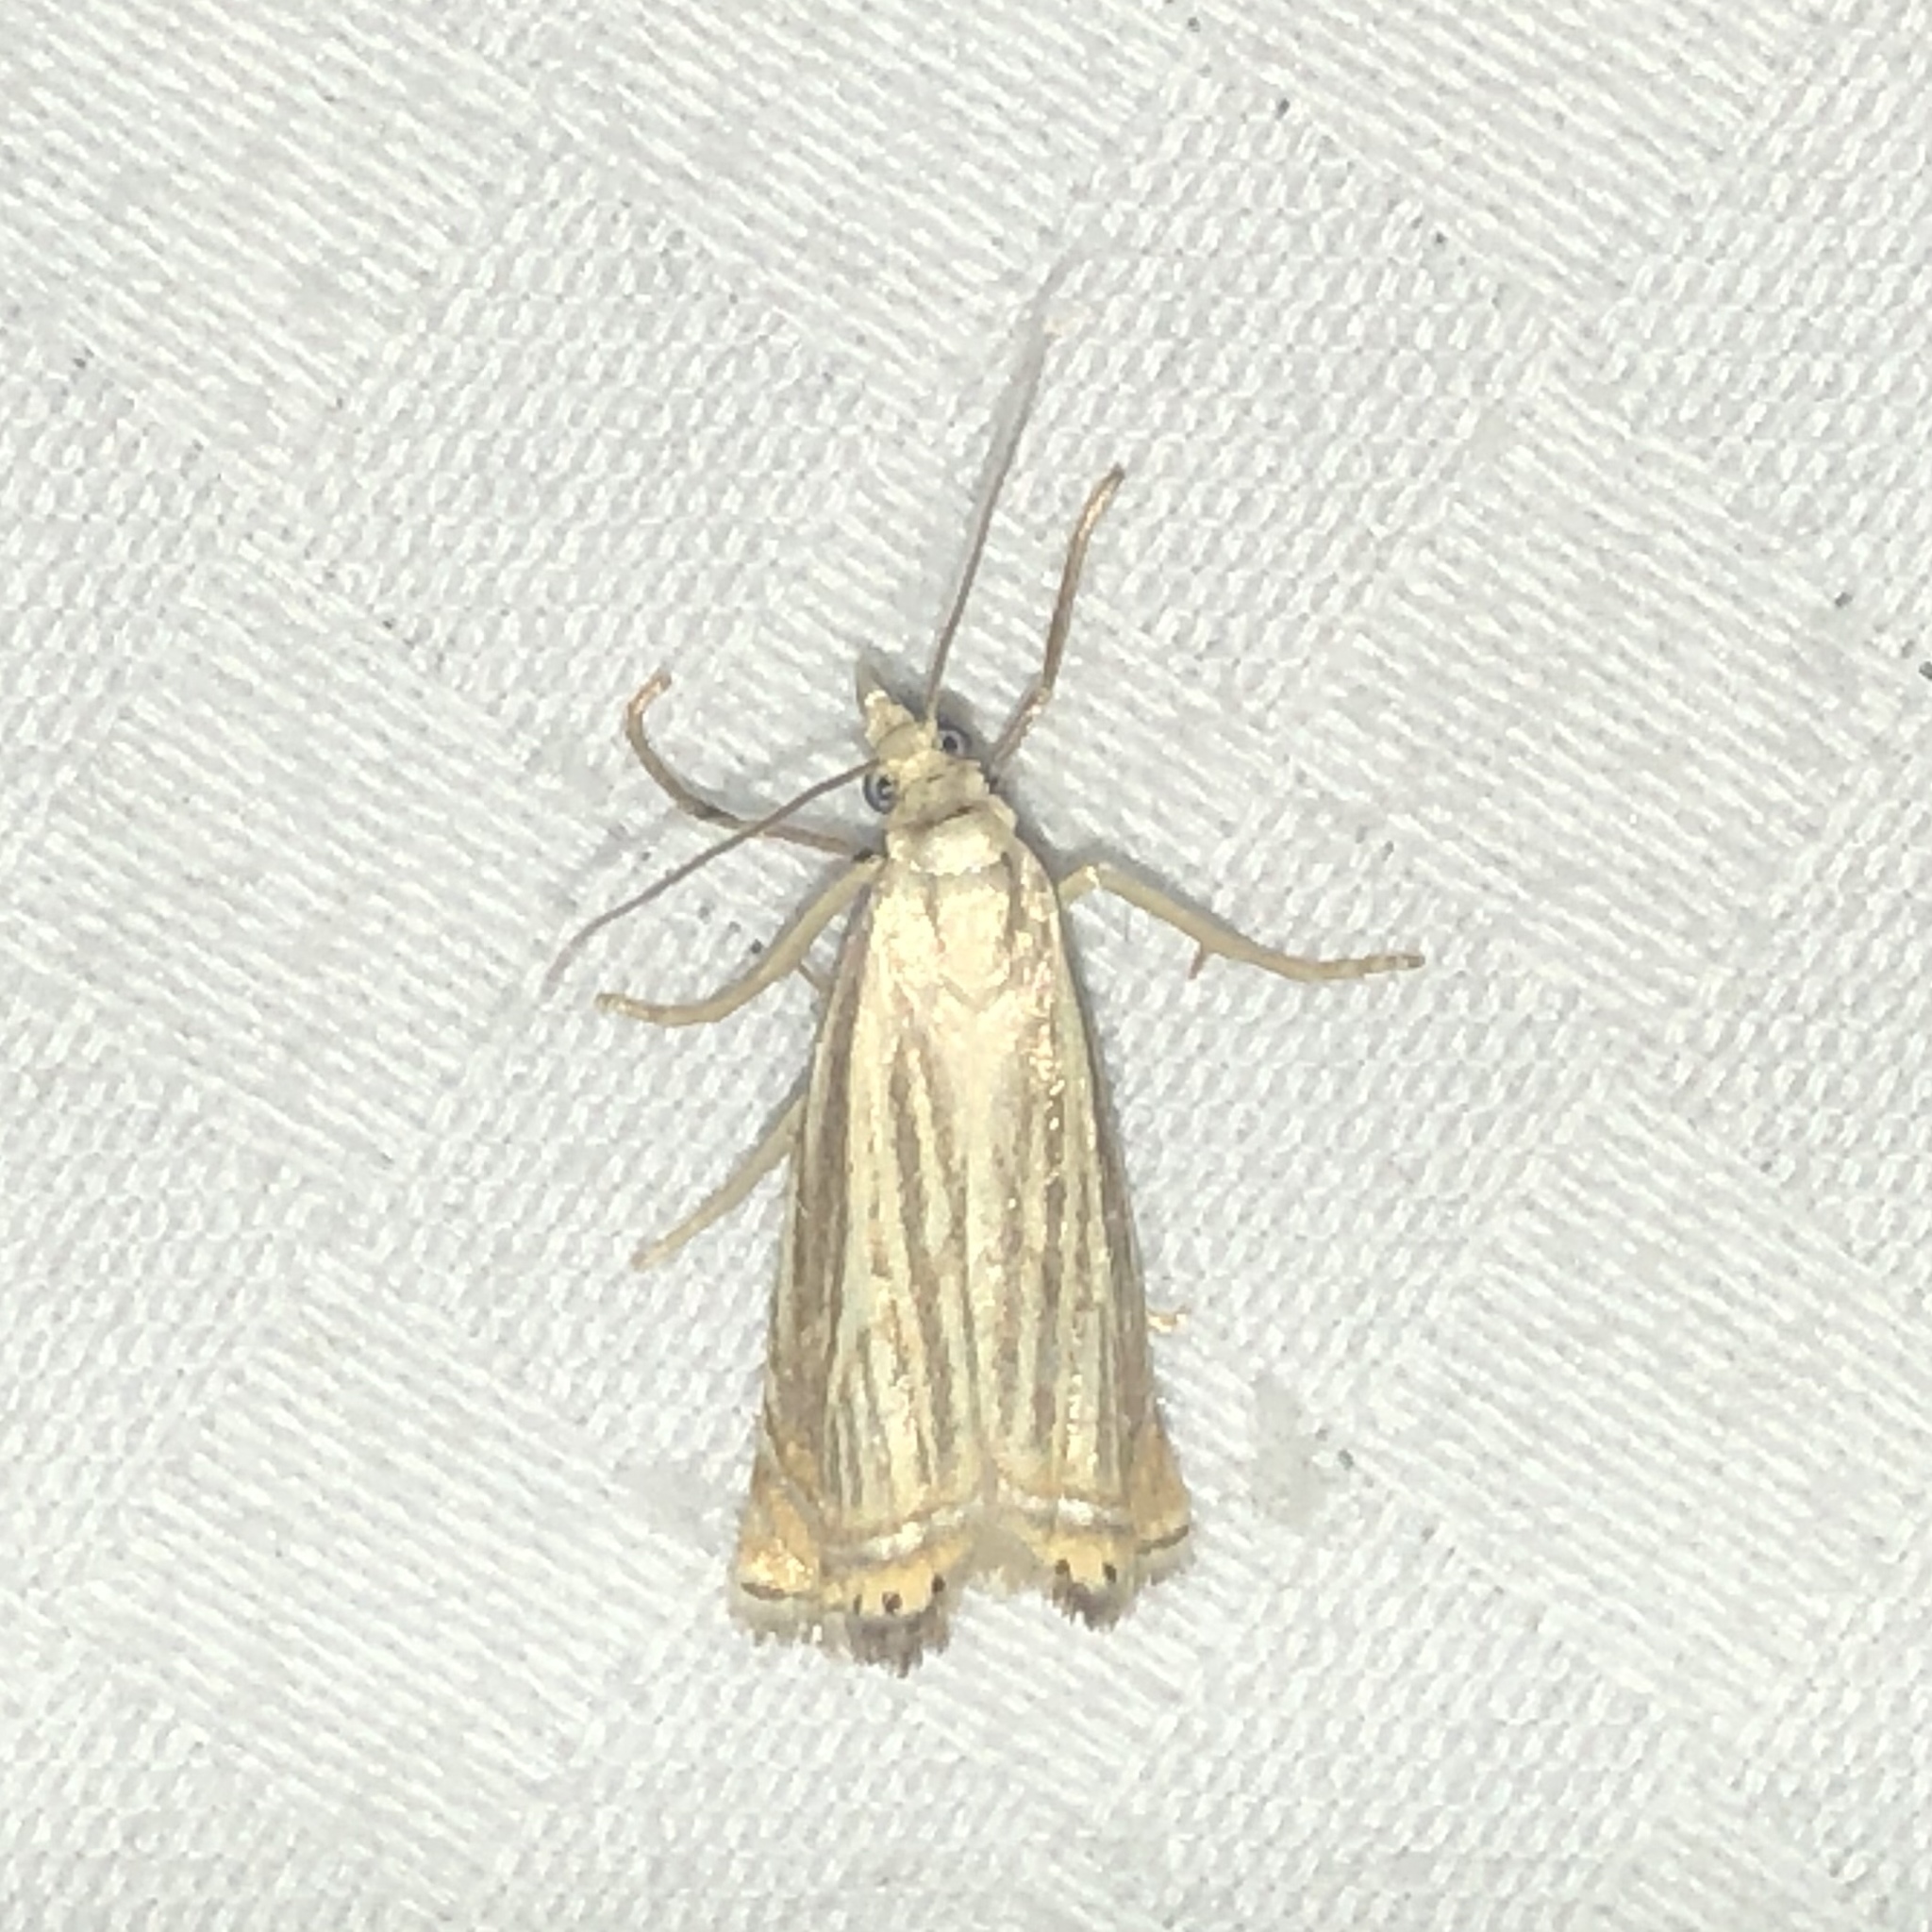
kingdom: Animalia
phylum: Arthropoda
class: Insecta
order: Lepidoptera
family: Crambidae
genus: Chrysoteuchia
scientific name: Chrysoteuchia topiarius
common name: Topiary grass-veneer
